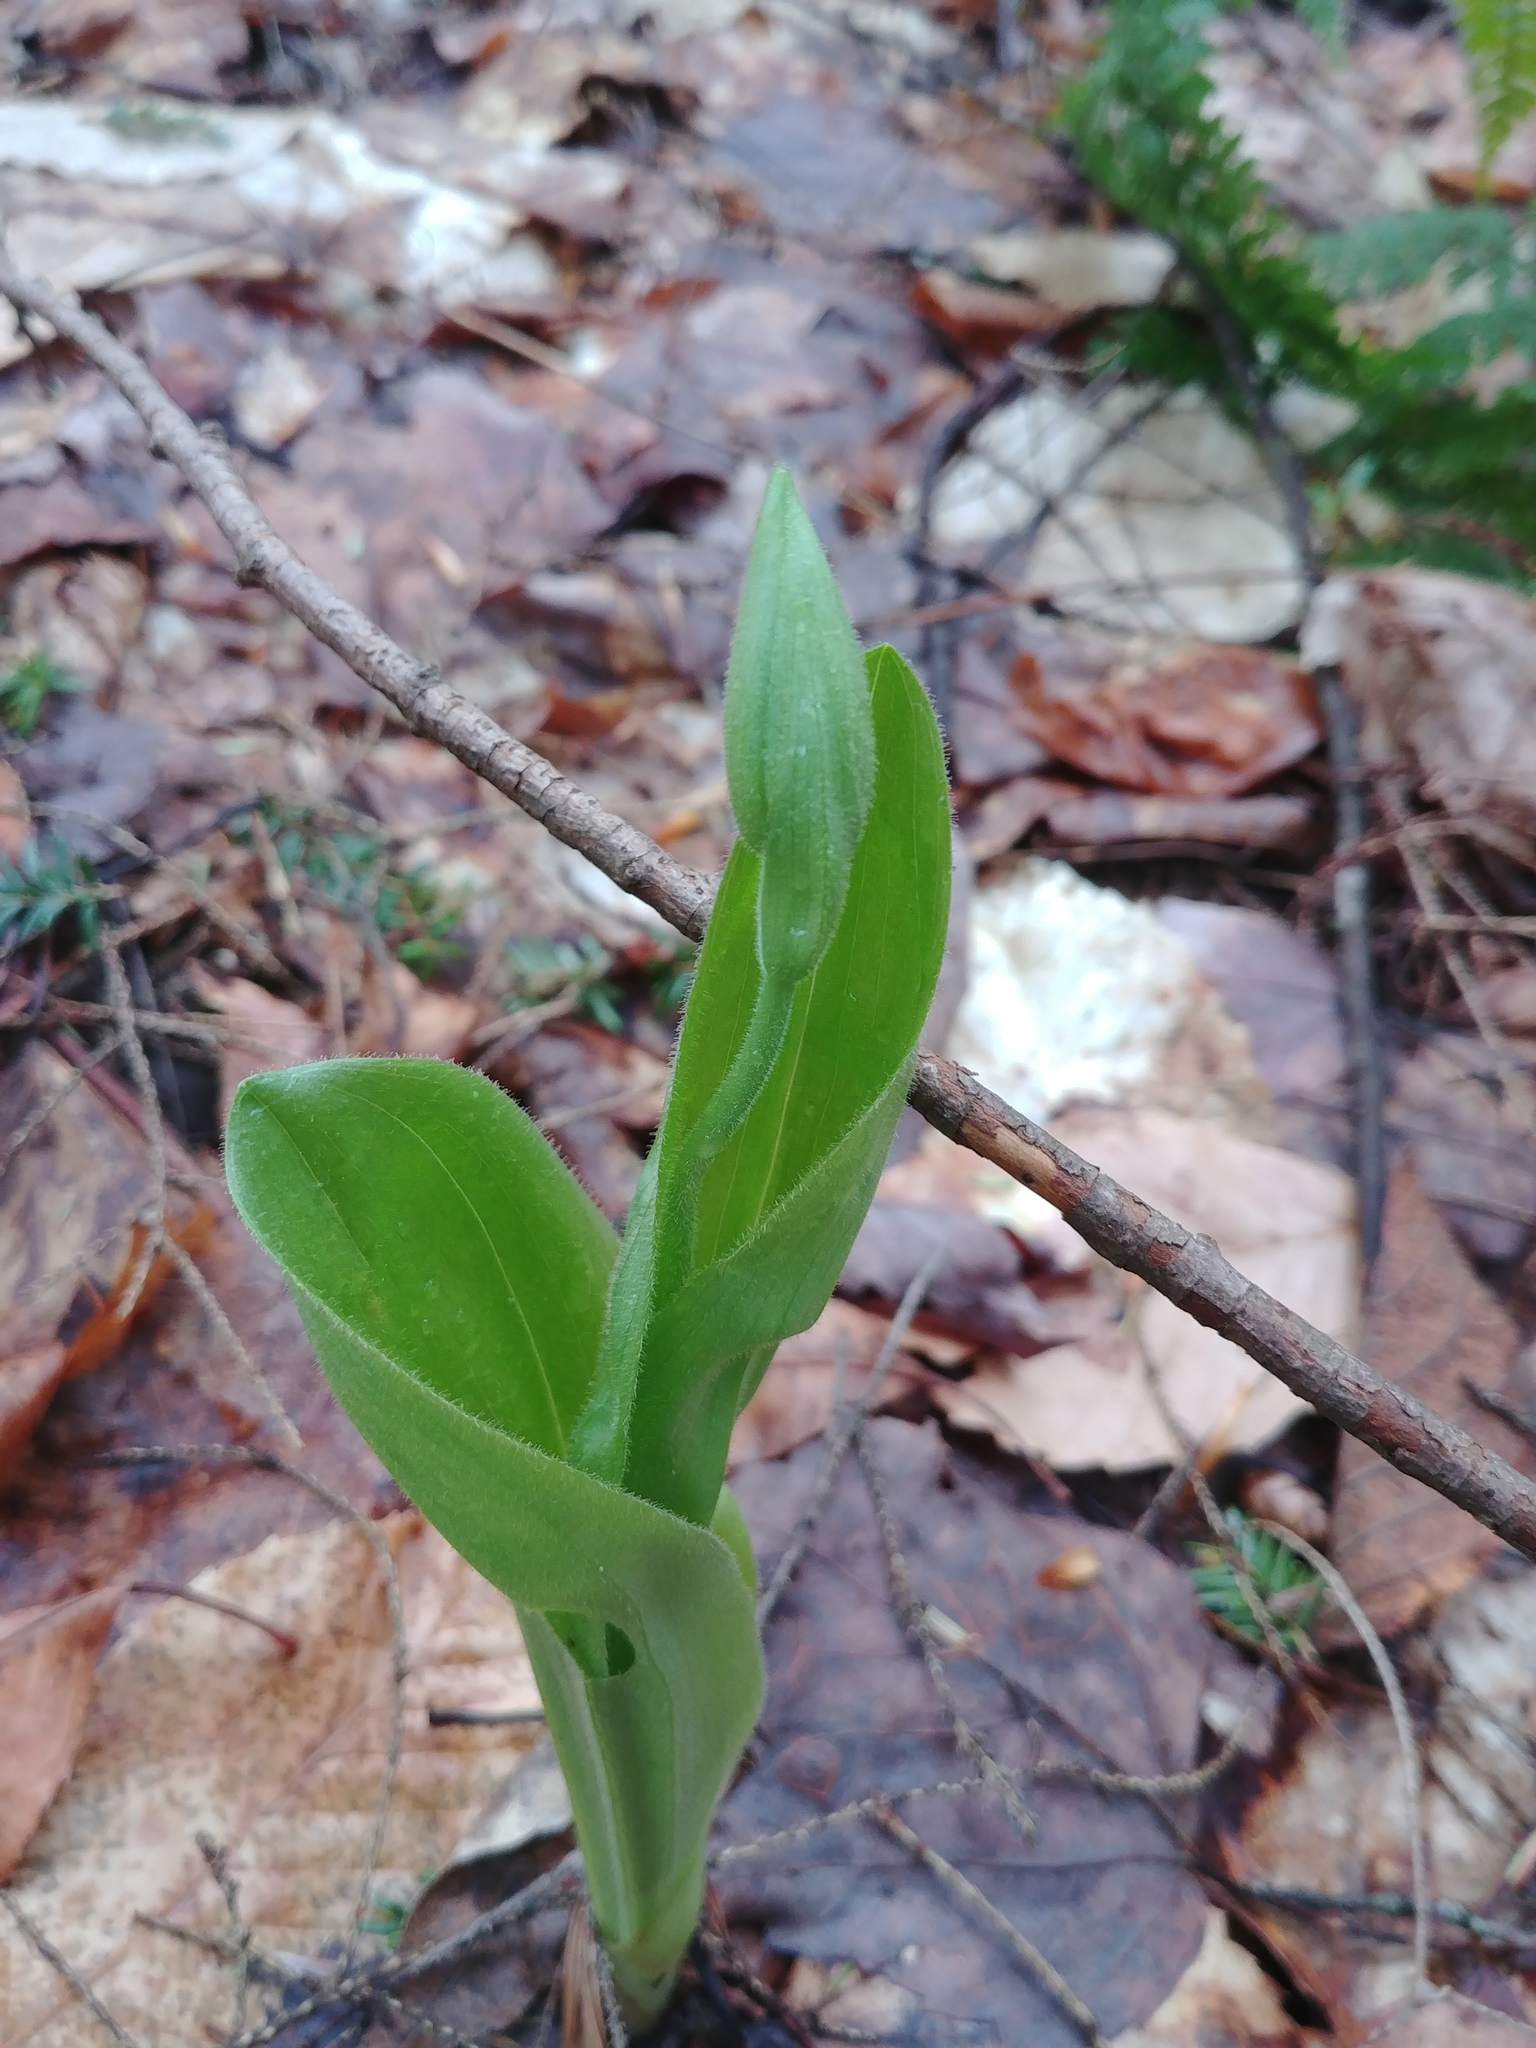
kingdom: Plantae
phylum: Tracheophyta
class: Liliopsida
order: Asparagales
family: Orchidaceae
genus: Cypripedium
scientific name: Cypripedium acaule
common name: Pink lady's-slipper
